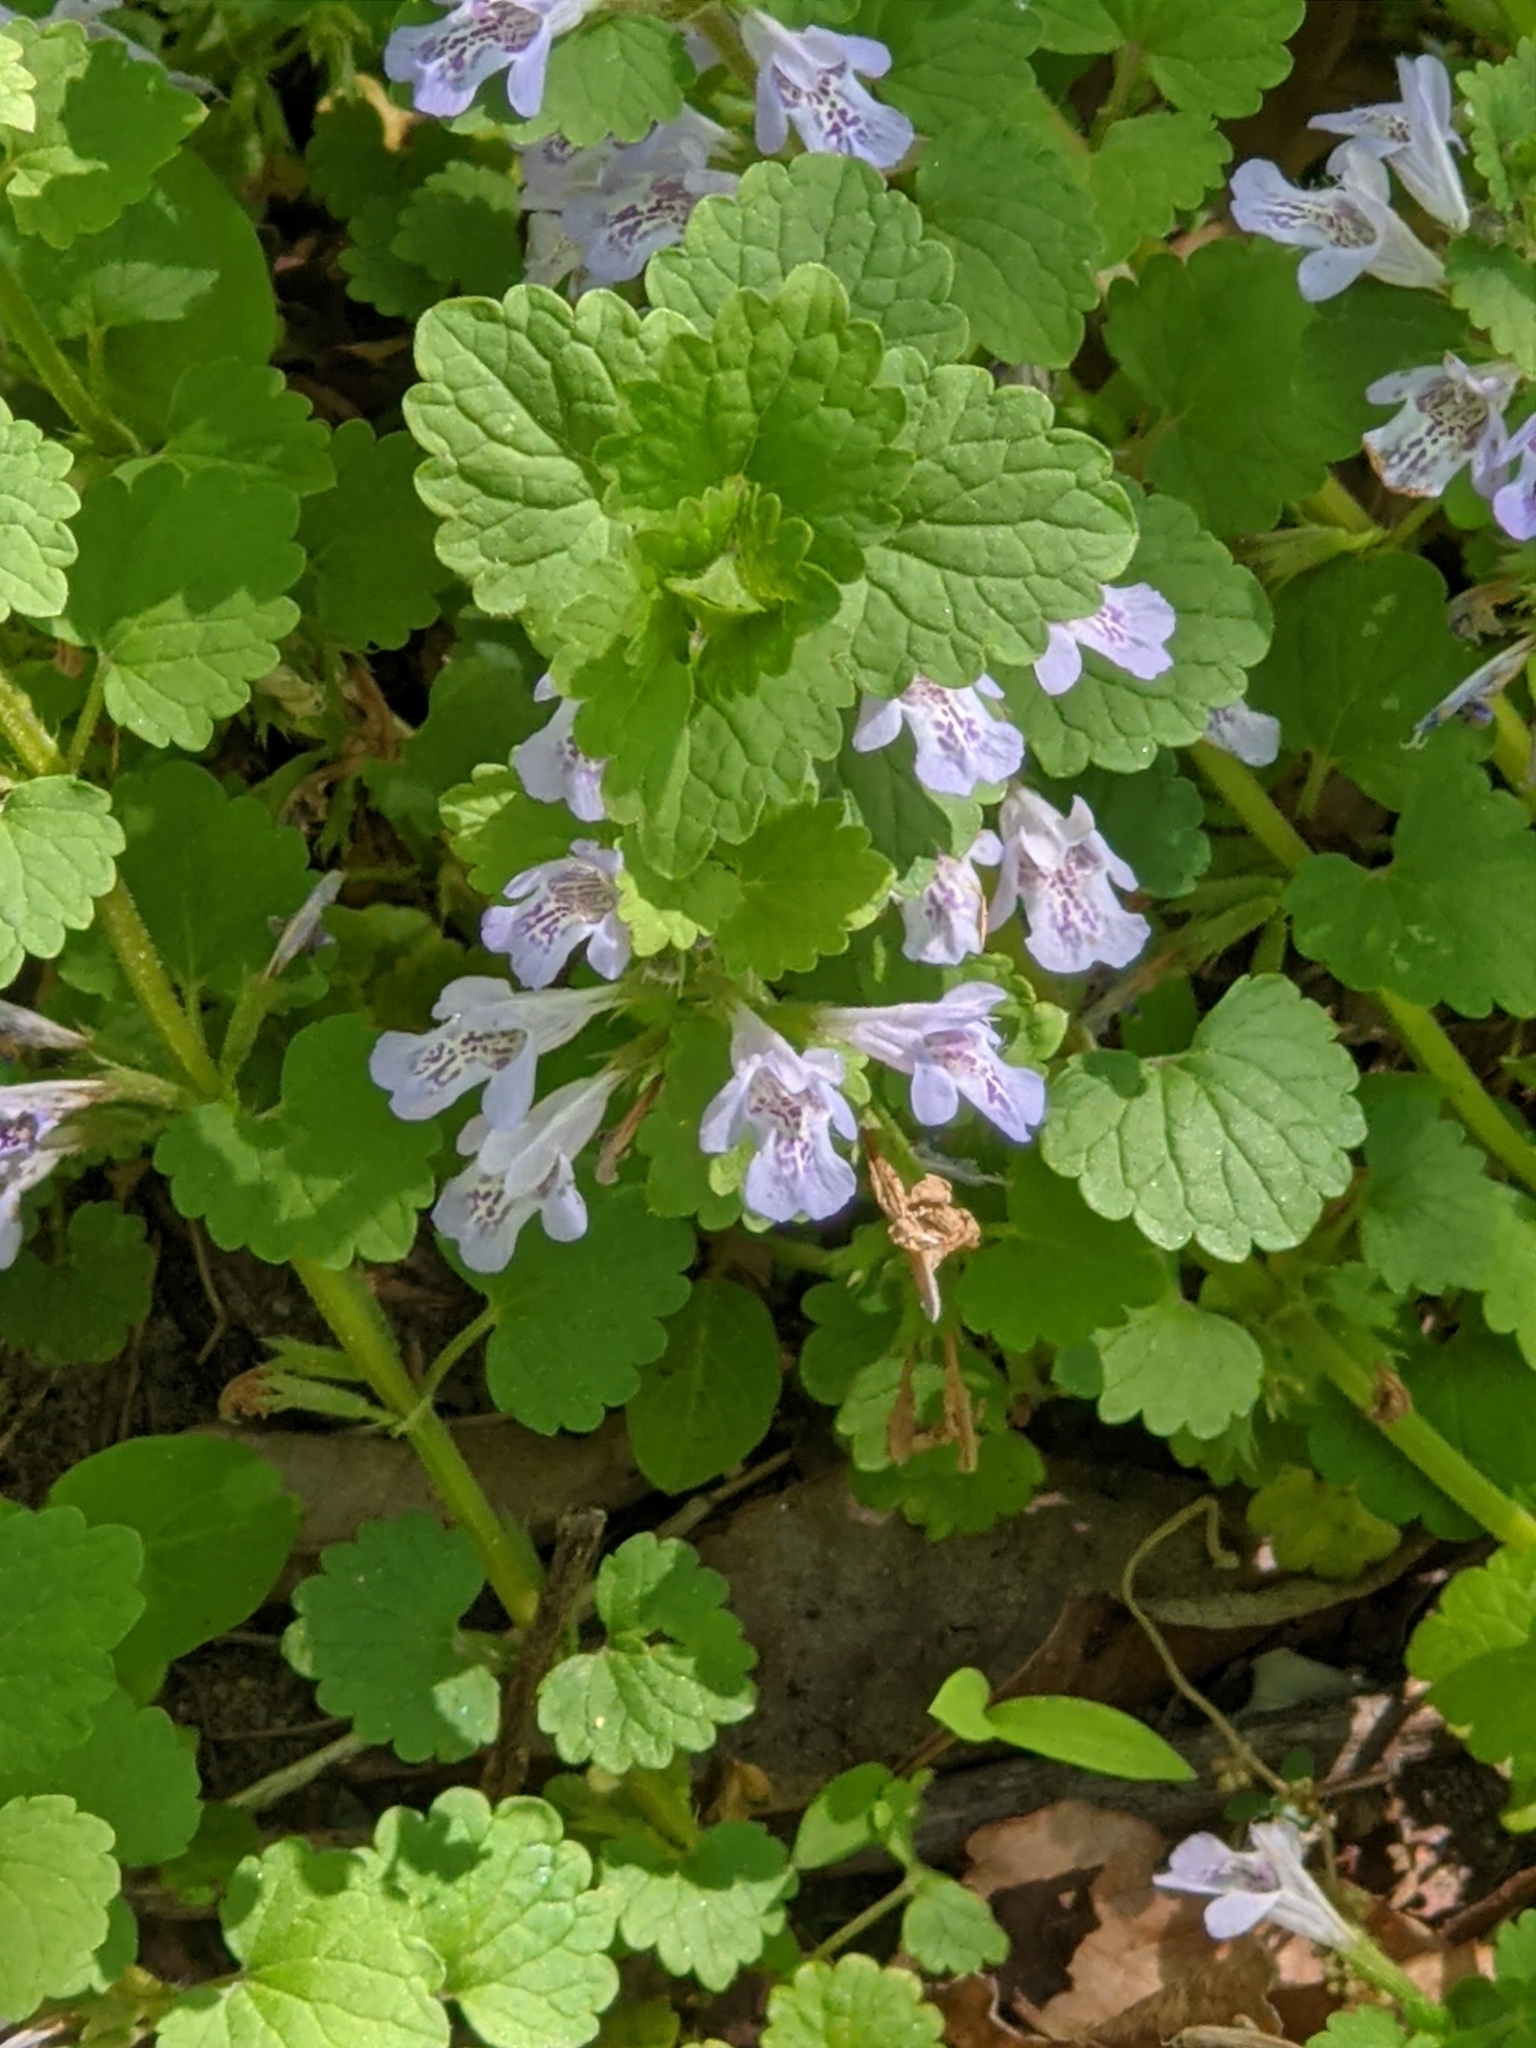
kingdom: Plantae
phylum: Tracheophyta
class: Magnoliopsida
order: Lamiales
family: Lamiaceae
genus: Glechoma
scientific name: Glechoma hederacea
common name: Ground ivy
